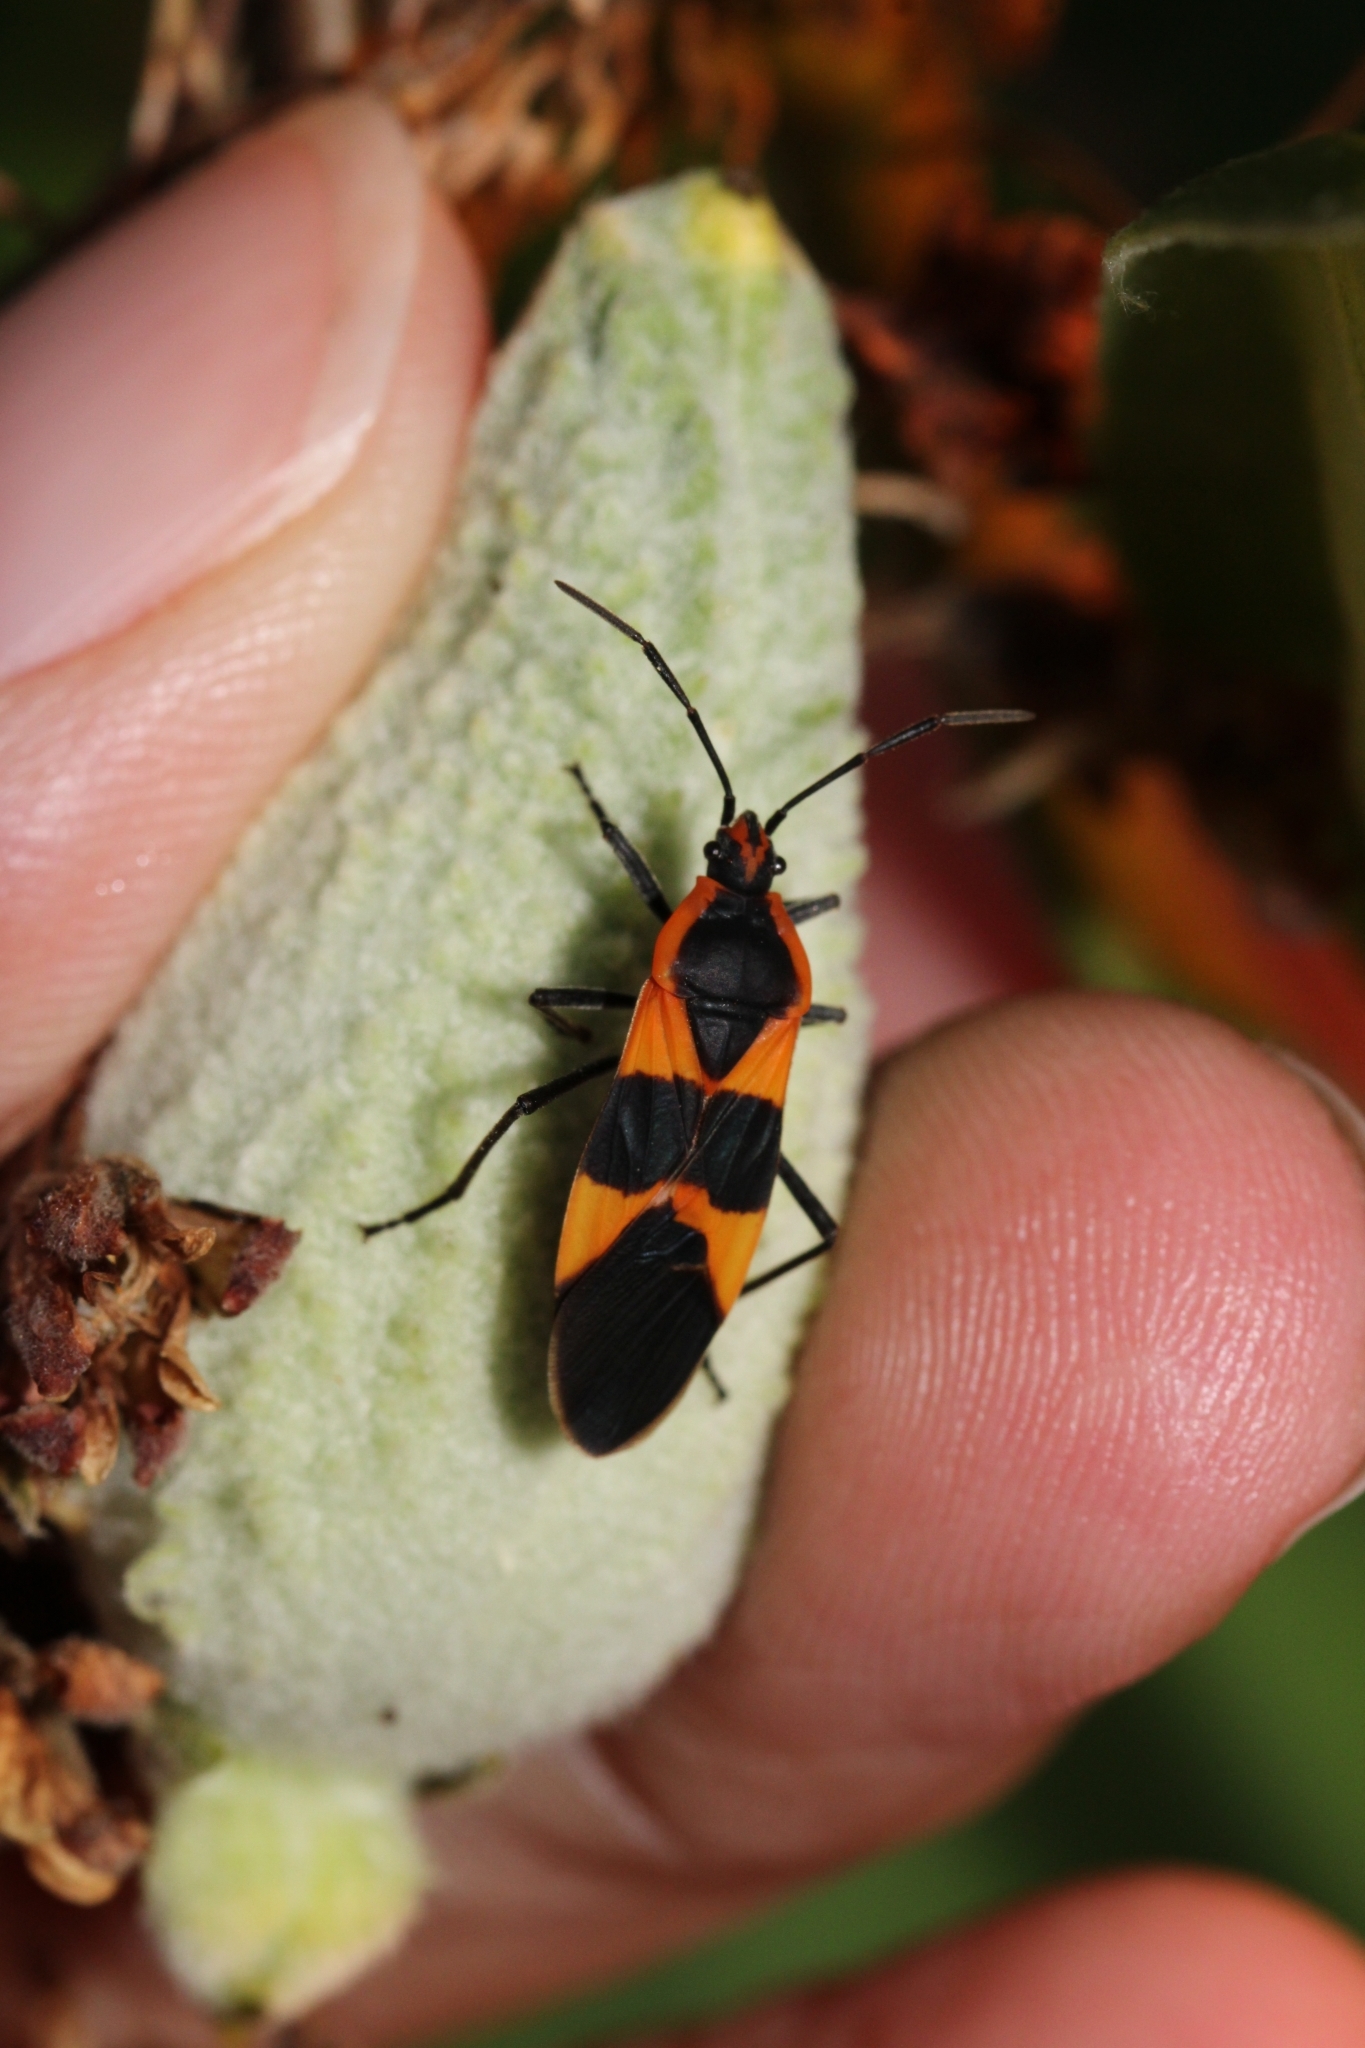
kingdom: Animalia
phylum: Arthropoda
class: Insecta
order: Hemiptera
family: Lygaeidae
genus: Oncopeltus
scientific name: Oncopeltus fasciatus
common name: Large milkweed bug
